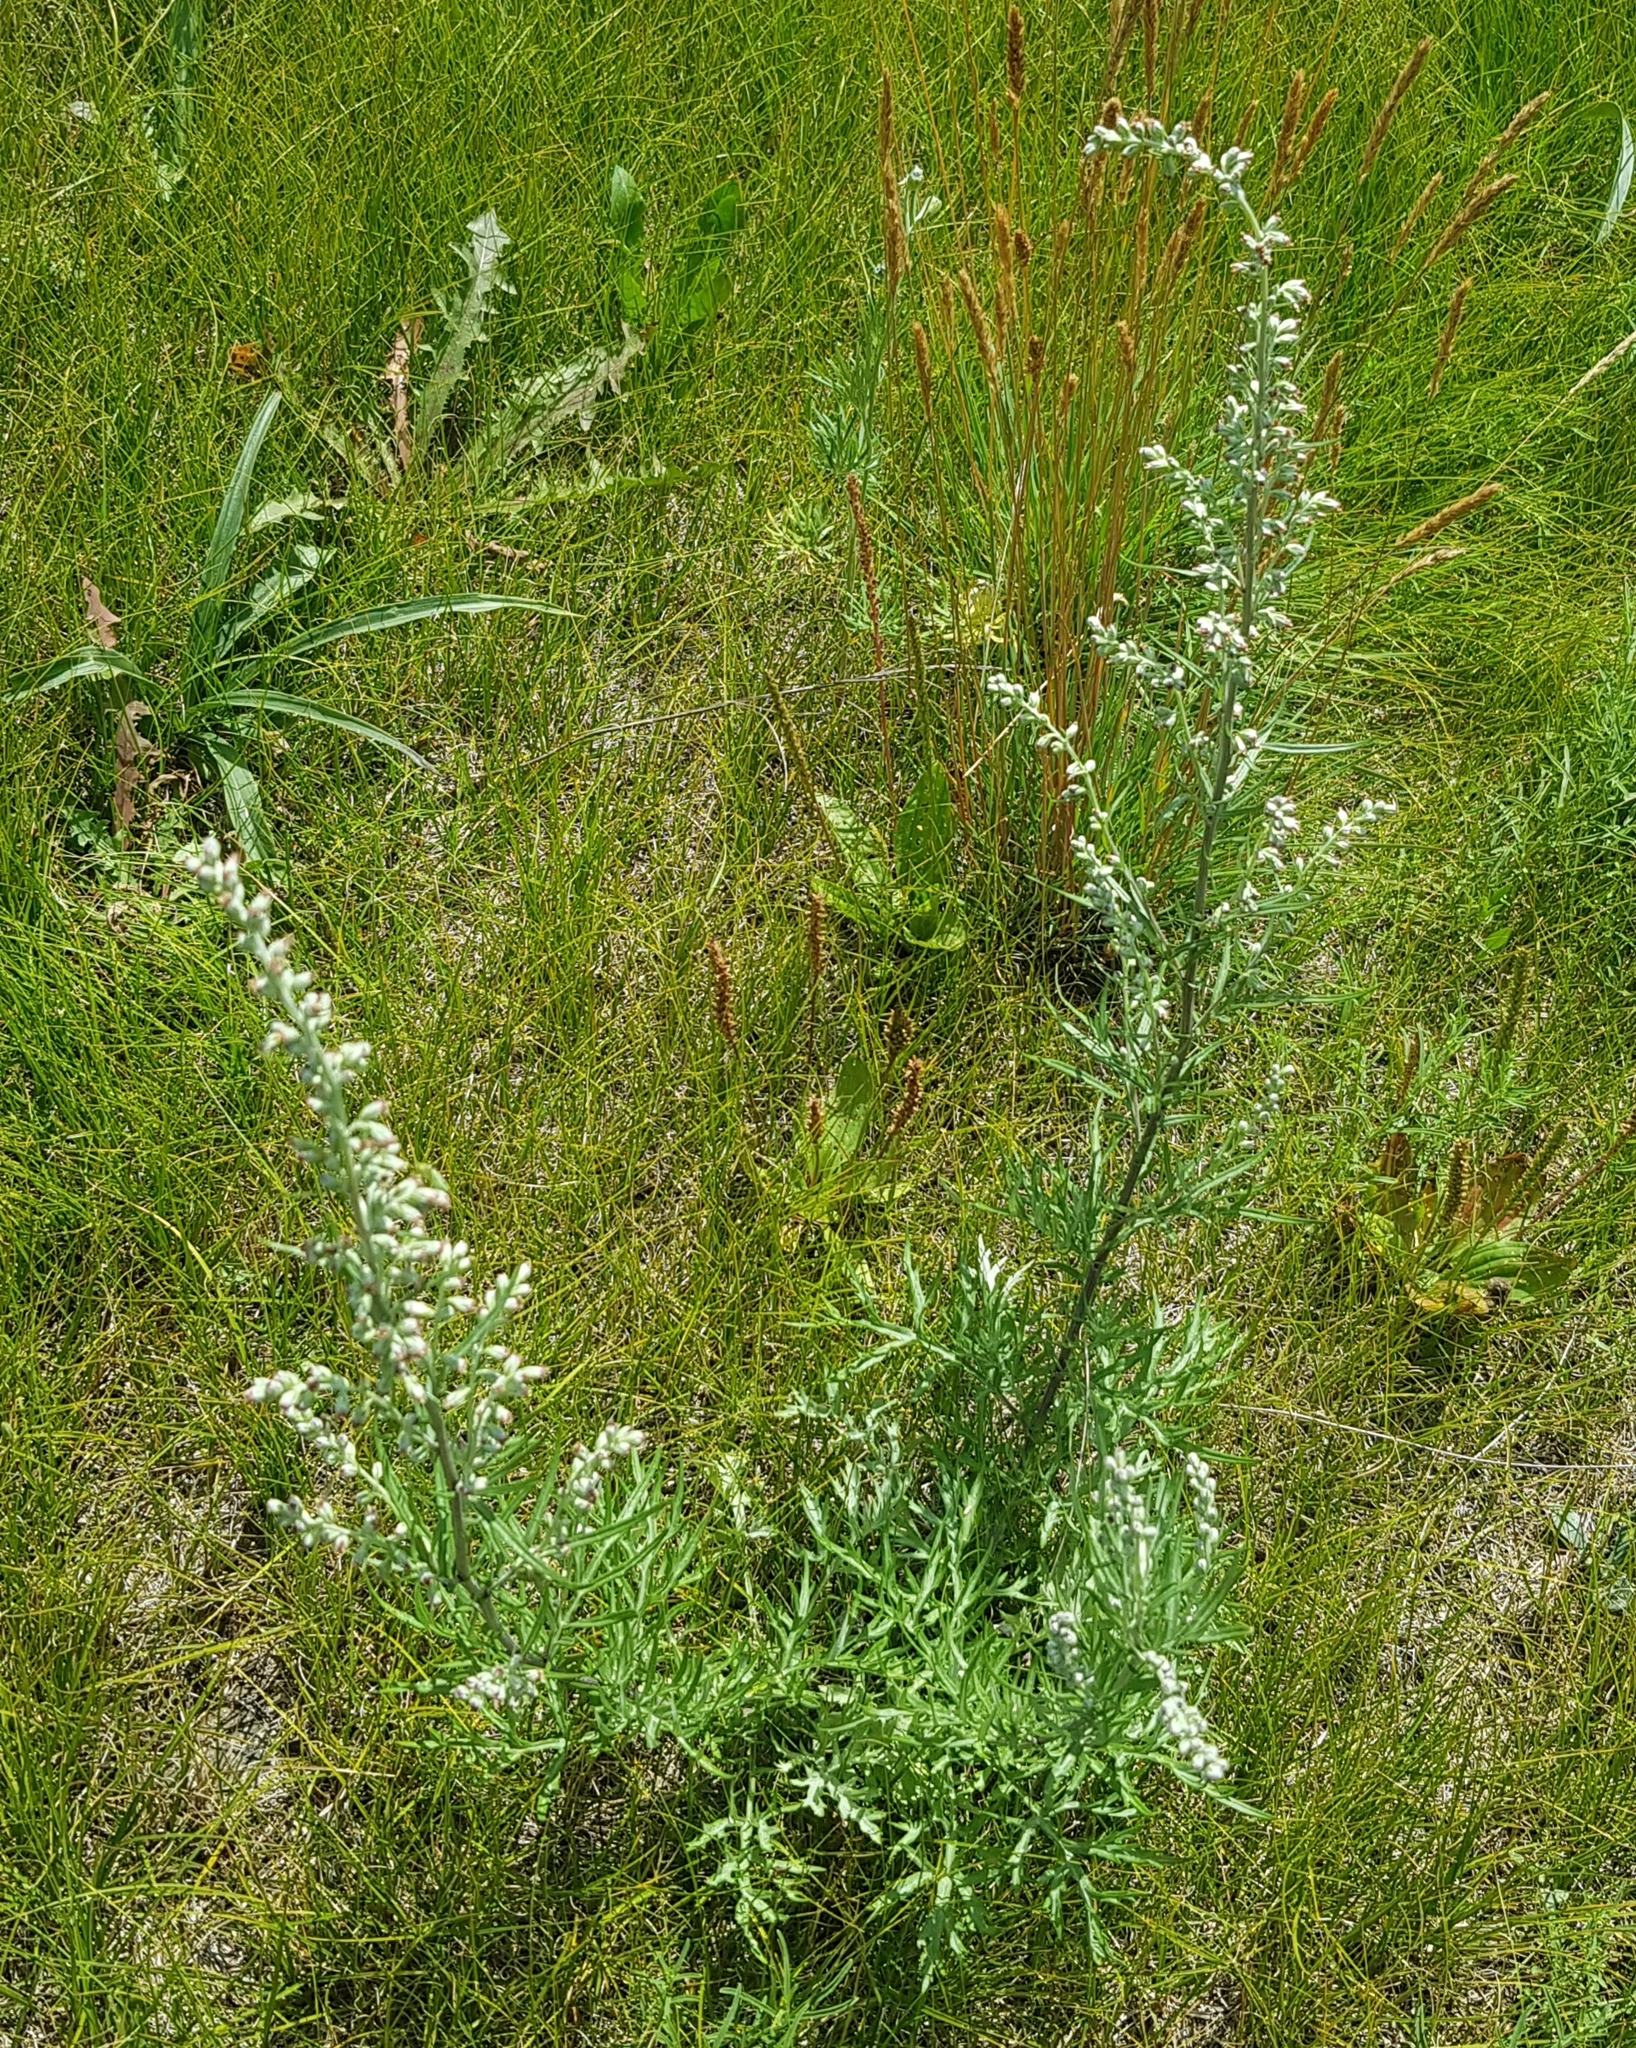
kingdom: Plantae
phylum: Tracheophyta
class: Magnoliopsida
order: Asterales
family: Asteraceae
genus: Artemisia
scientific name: Artemisia vulgaris
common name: Mugwort
